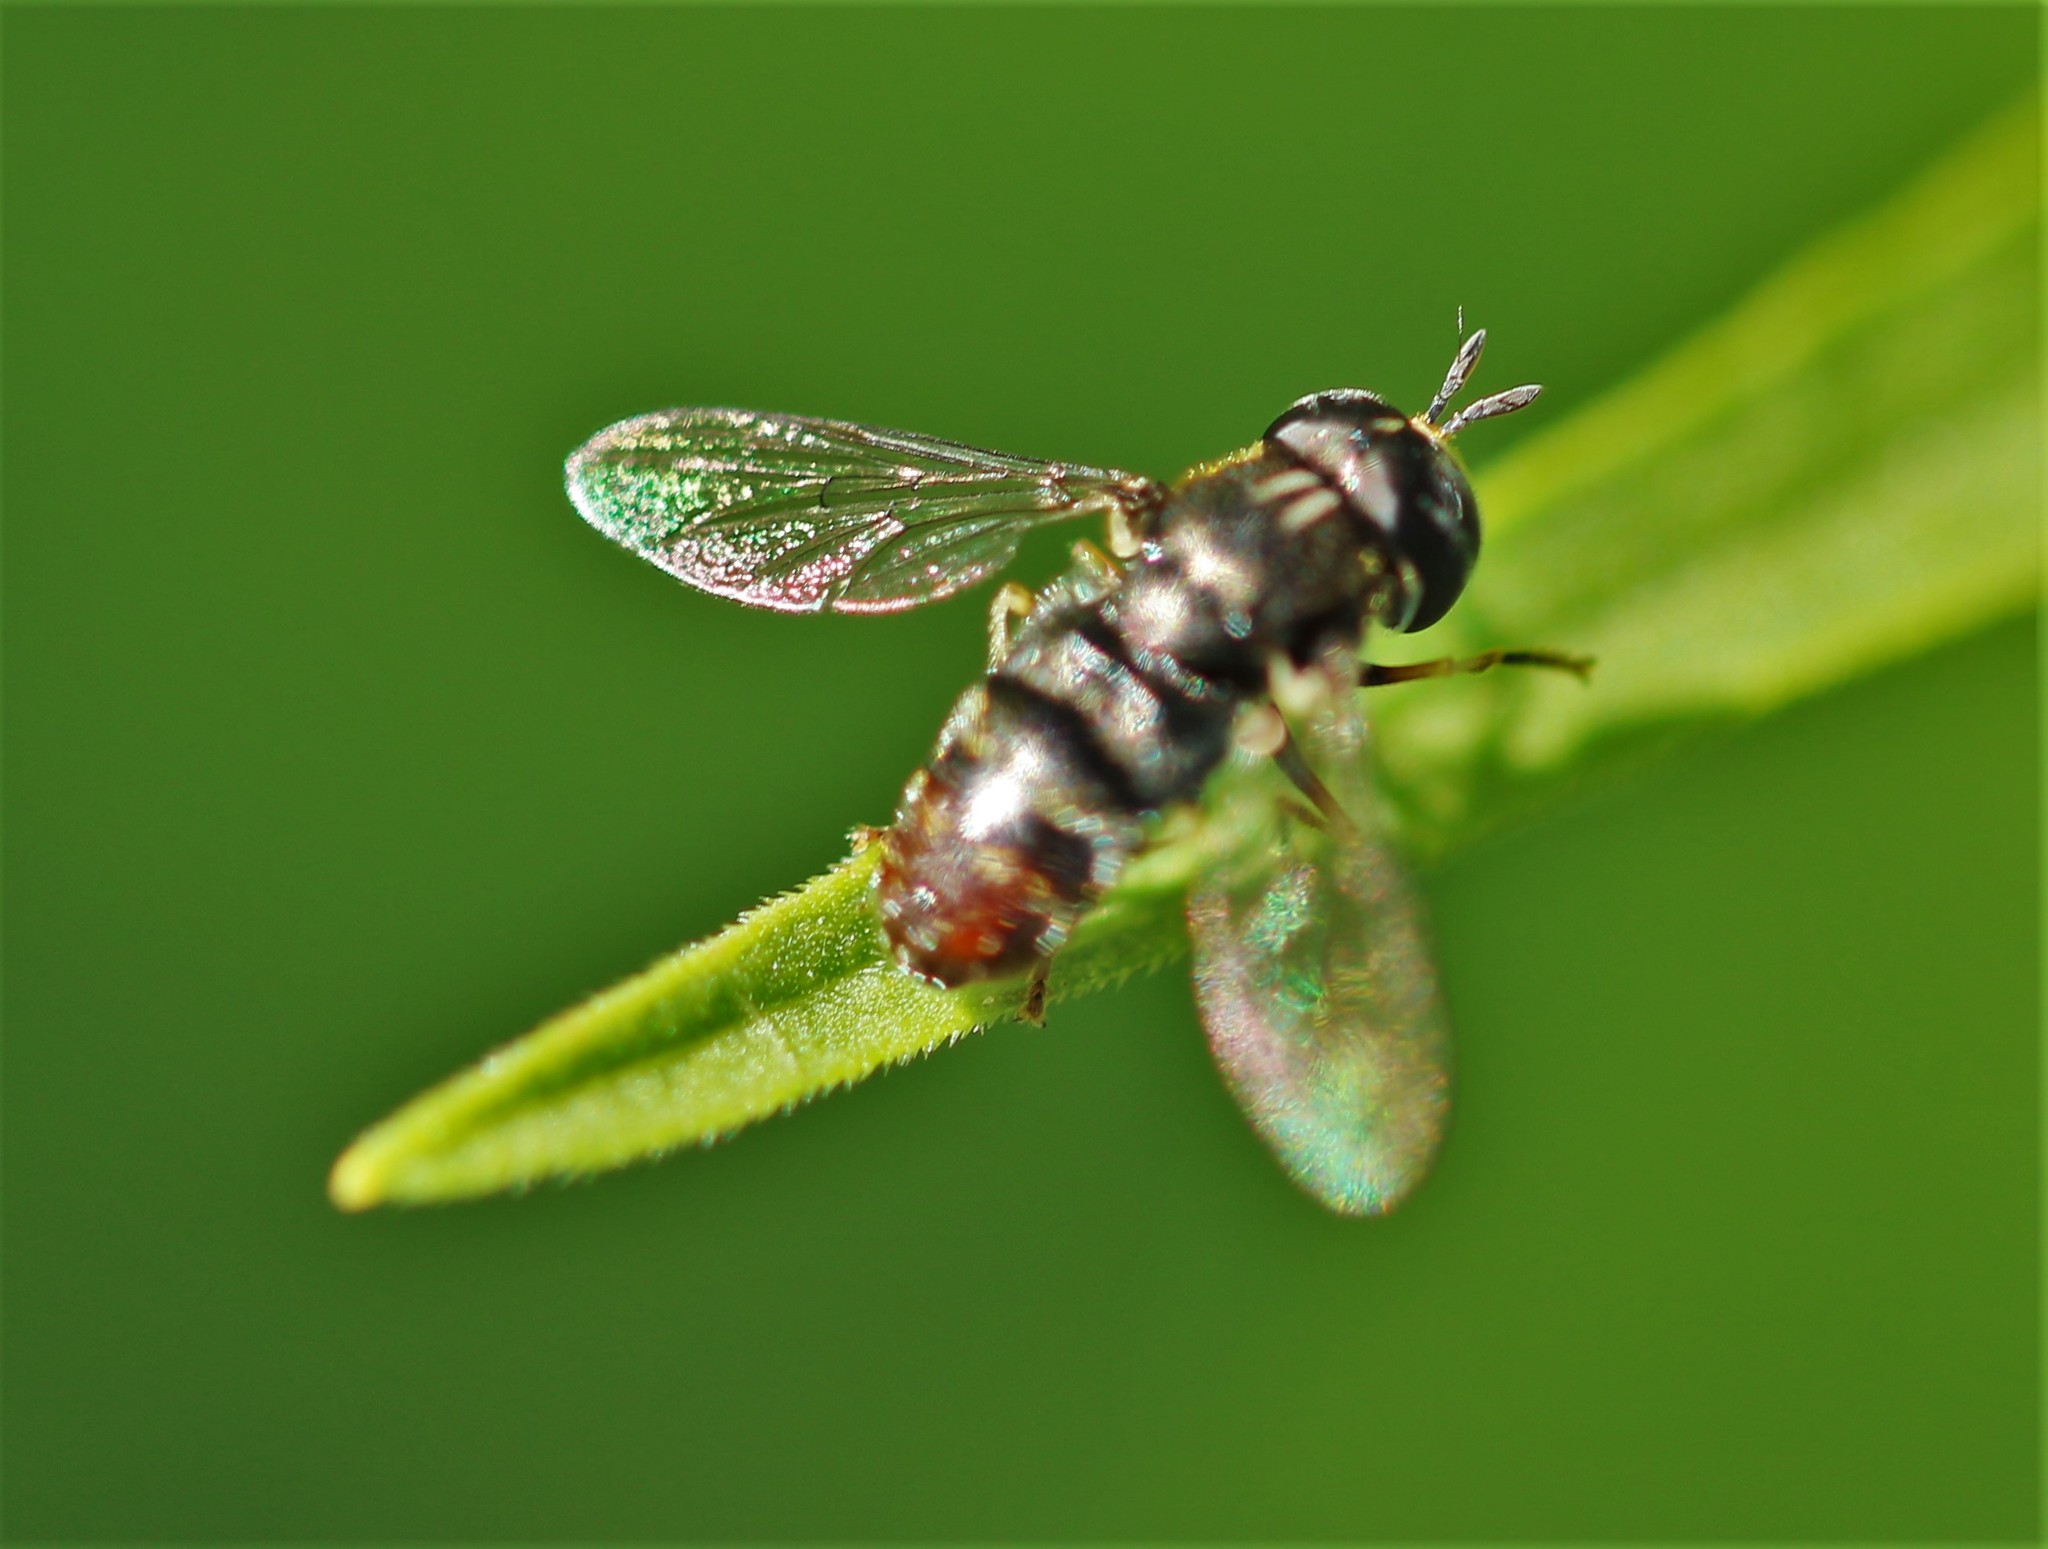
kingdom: Animalia
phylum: Arthropoda
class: Insecta
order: Diptera
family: Syrphidae
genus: Paragus
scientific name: Paragus
